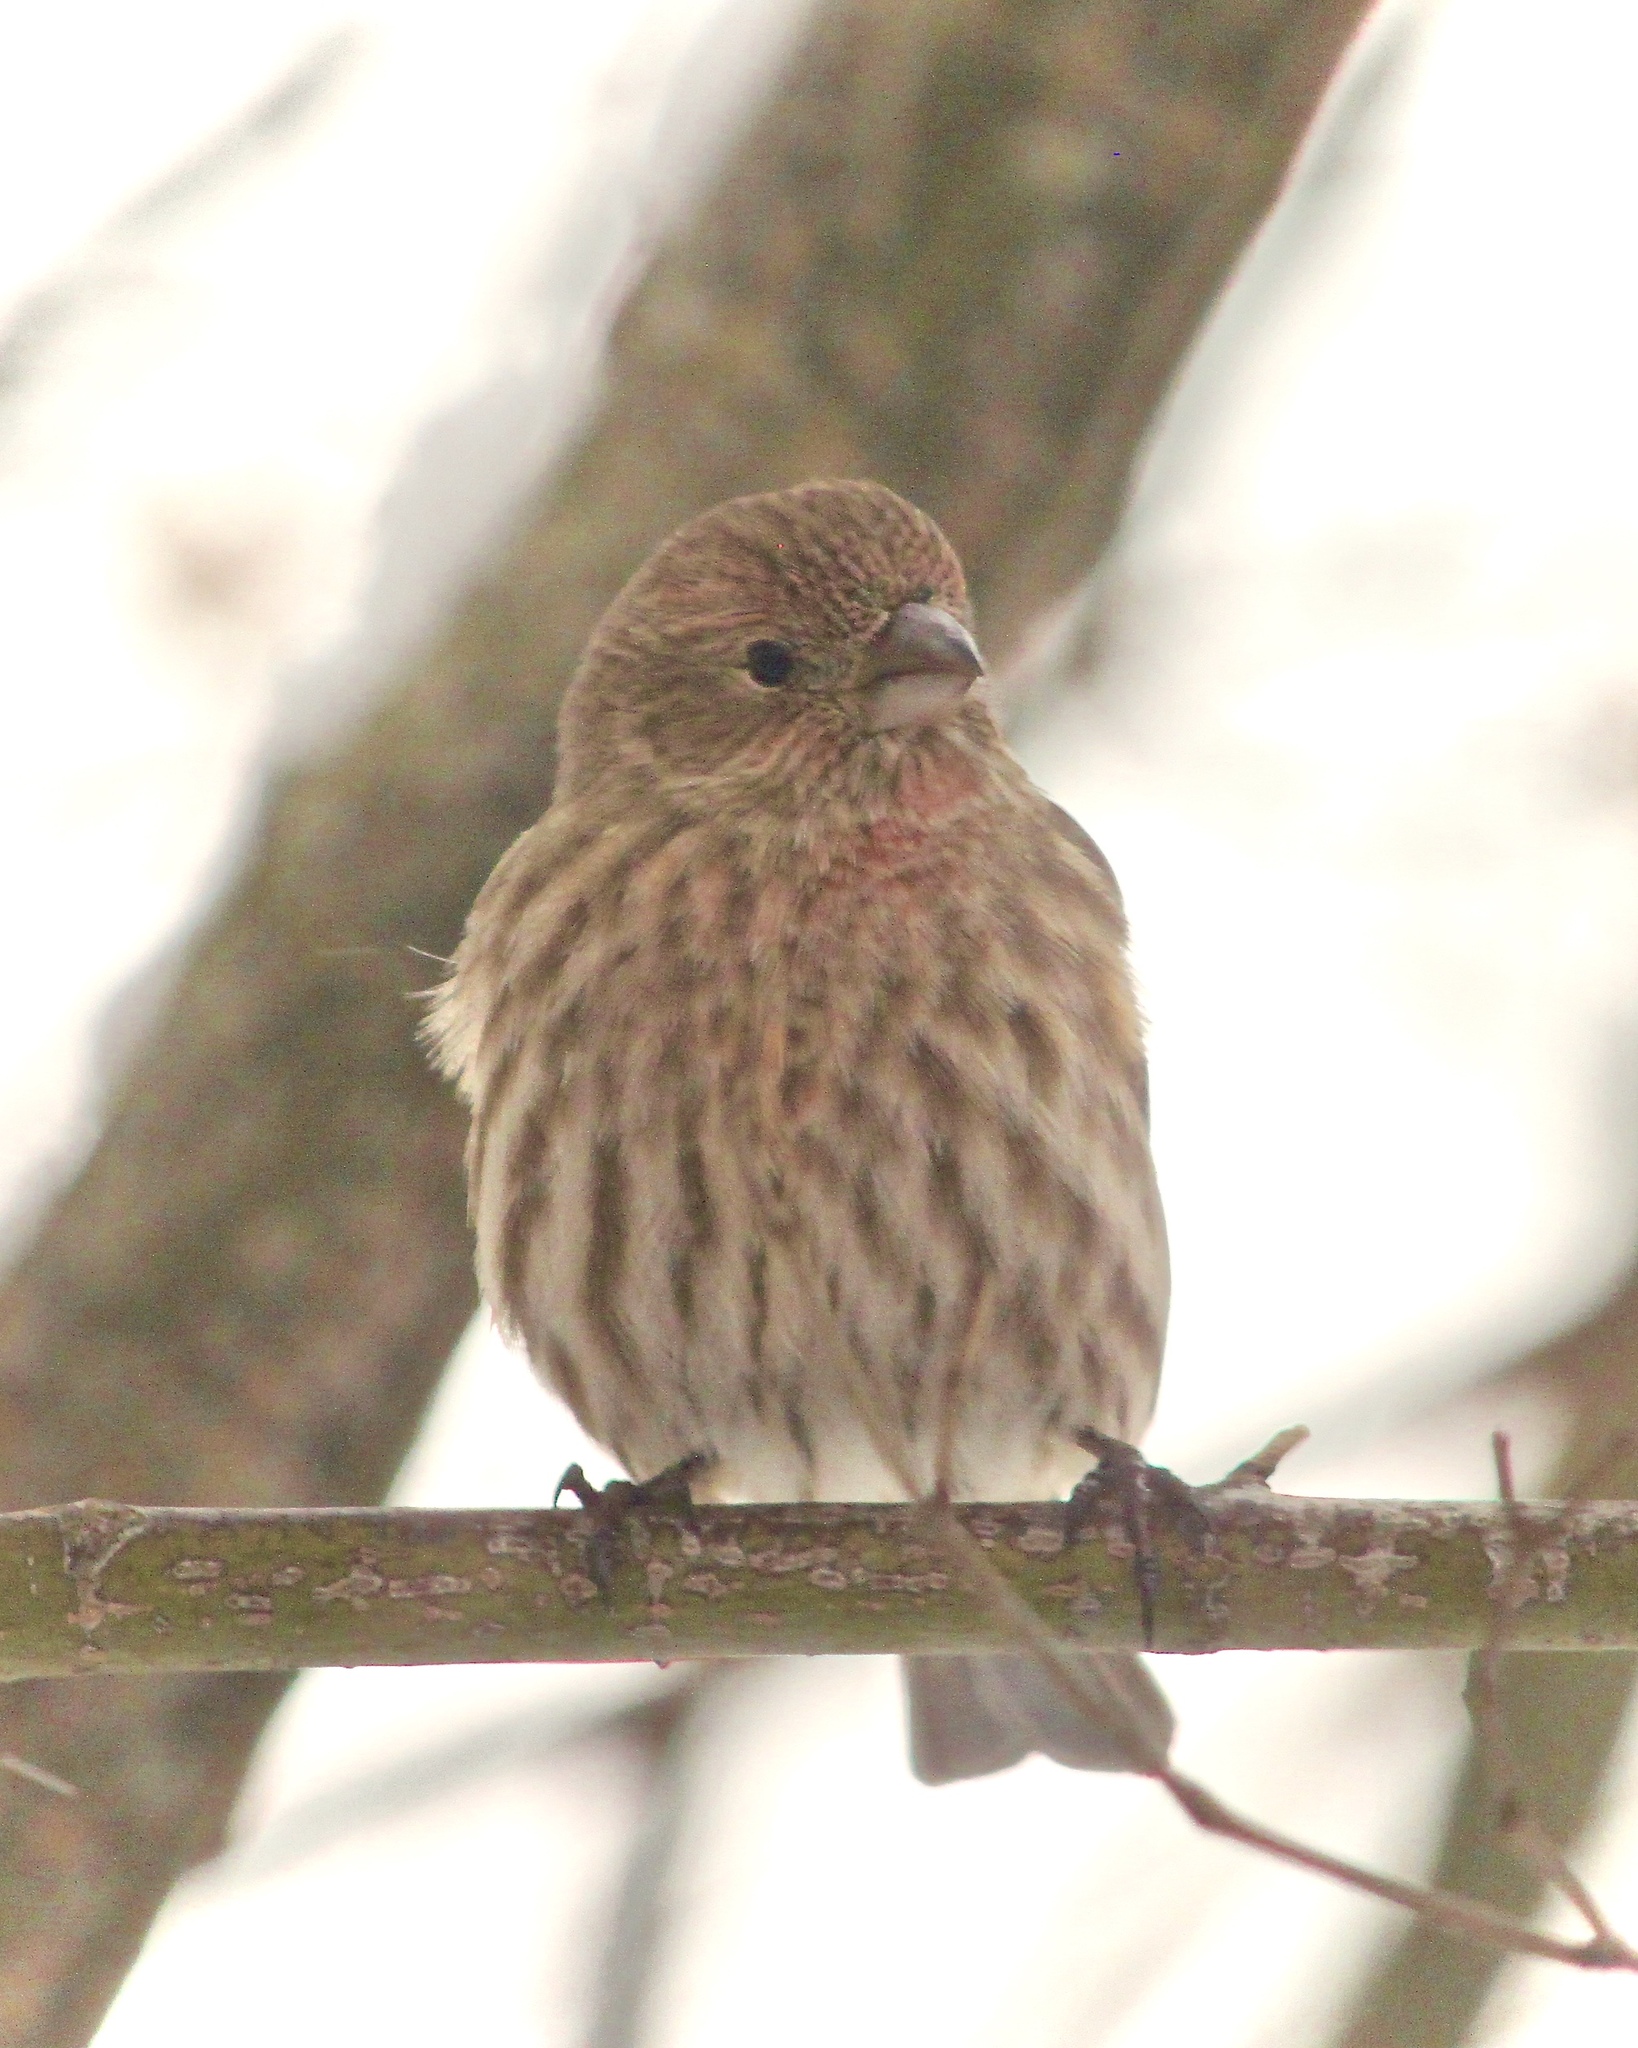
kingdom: Animalia
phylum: Chordata
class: Aves
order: Passeriformes
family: Fringillidae
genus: Haemorhous
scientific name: Haemorhous mexicanus
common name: House finch
